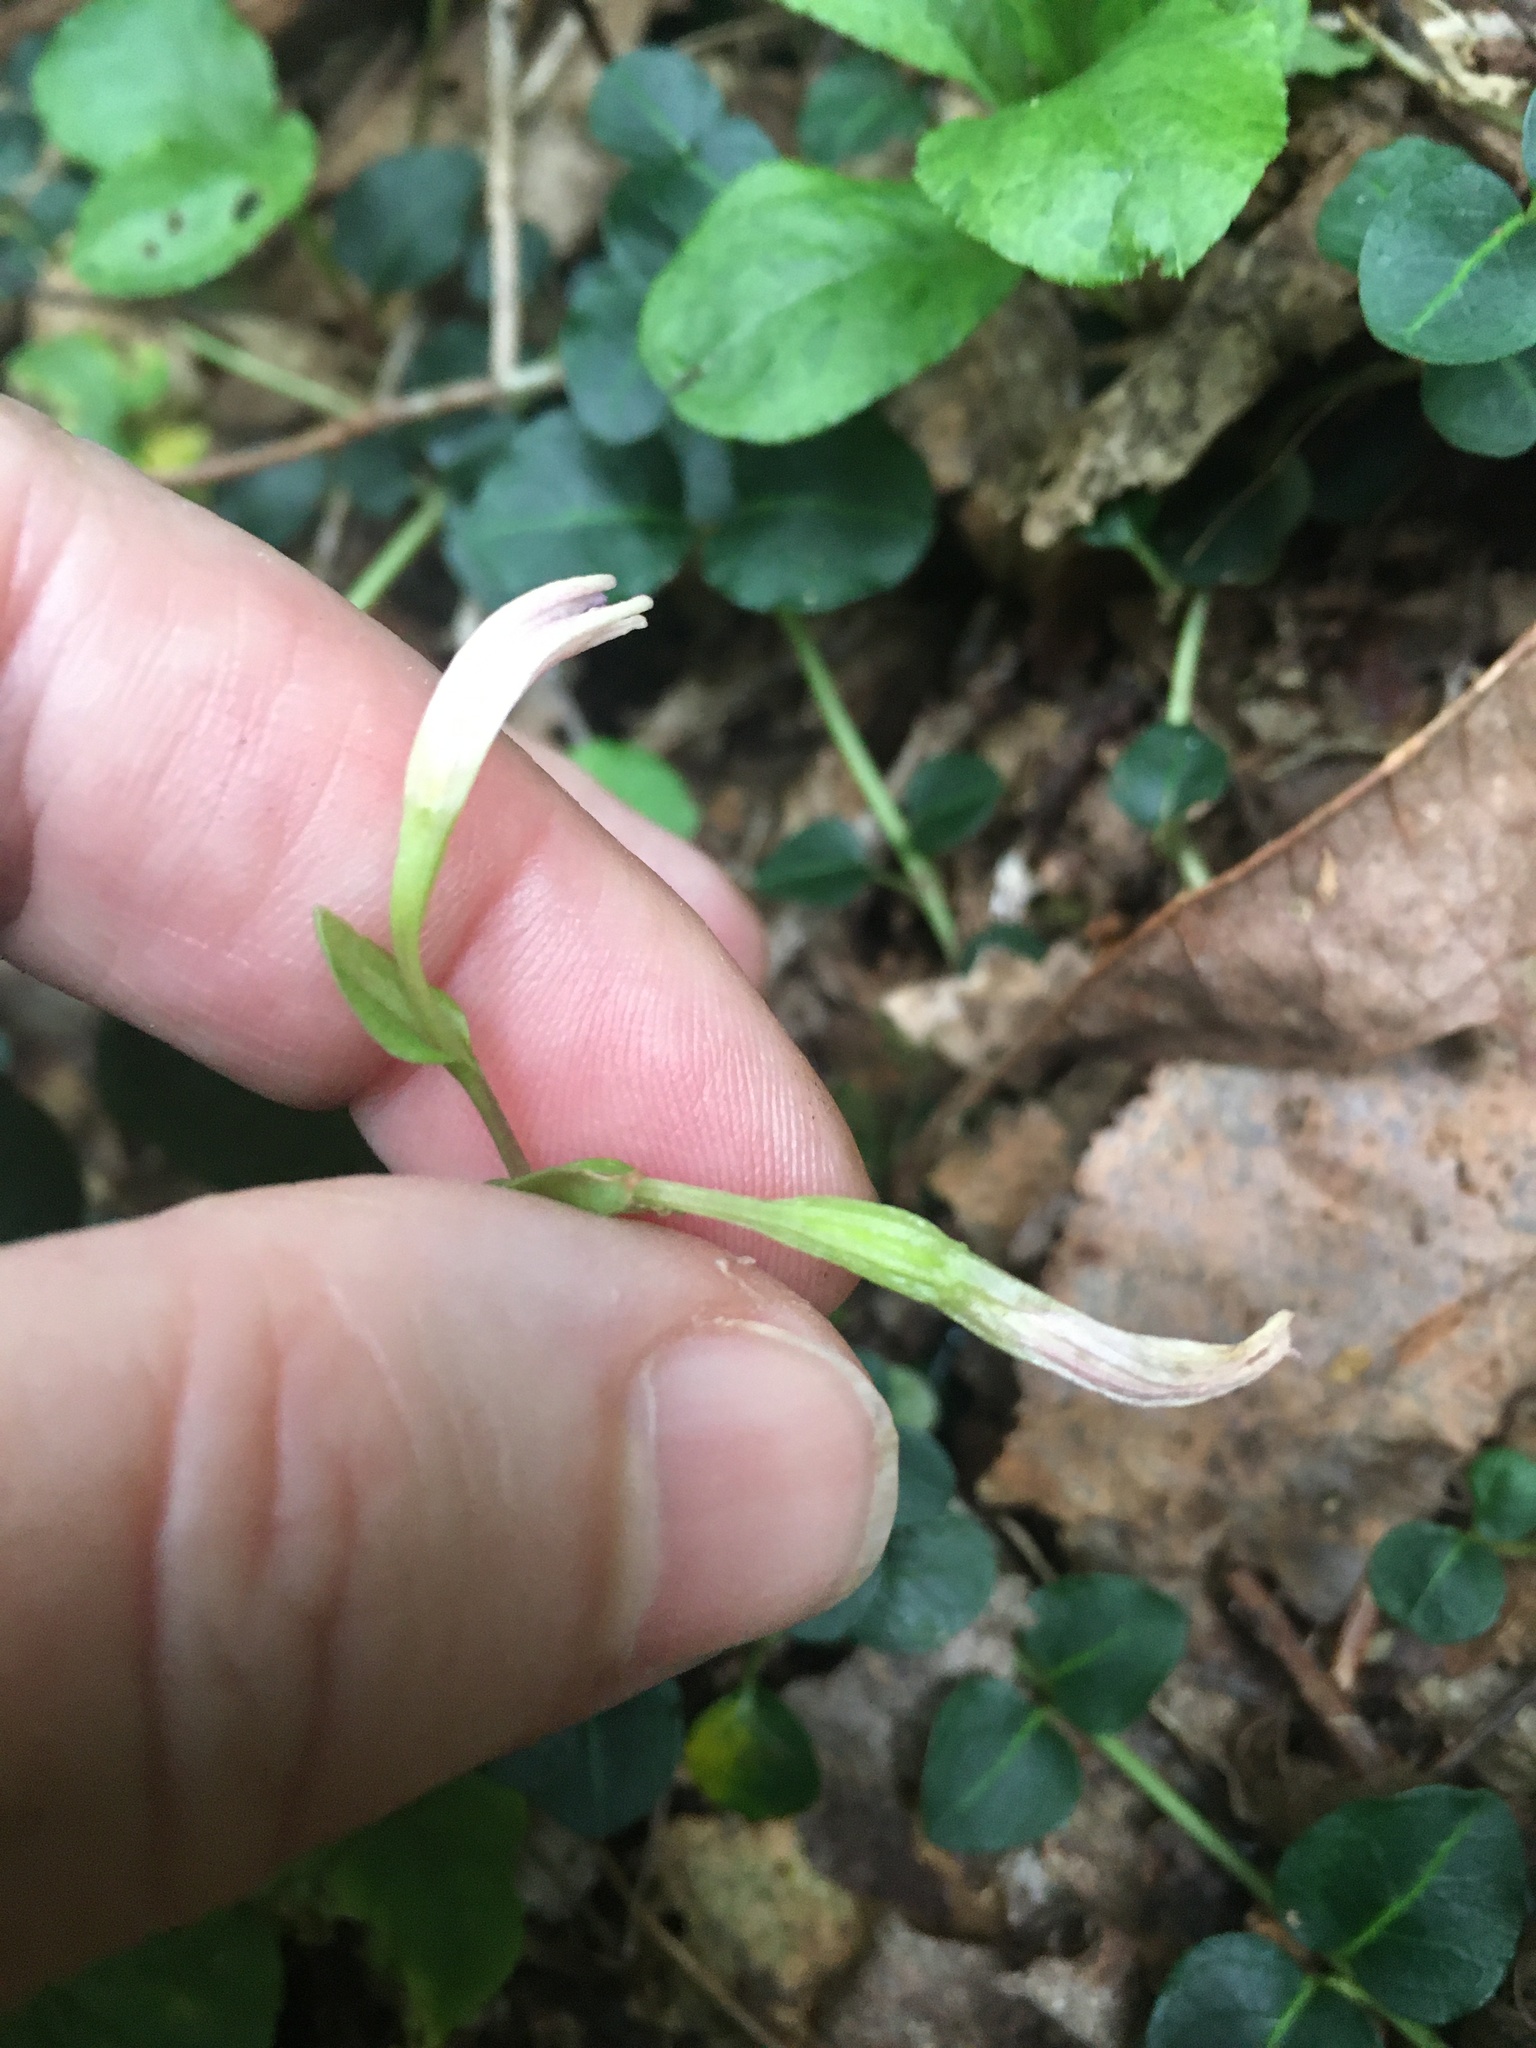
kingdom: Plantae
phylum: Tracheophyta
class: Liliopsida
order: Asparagales
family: Orchidaceae
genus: Triphora
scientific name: Triphora trianthophoros
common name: Three birds orchid
